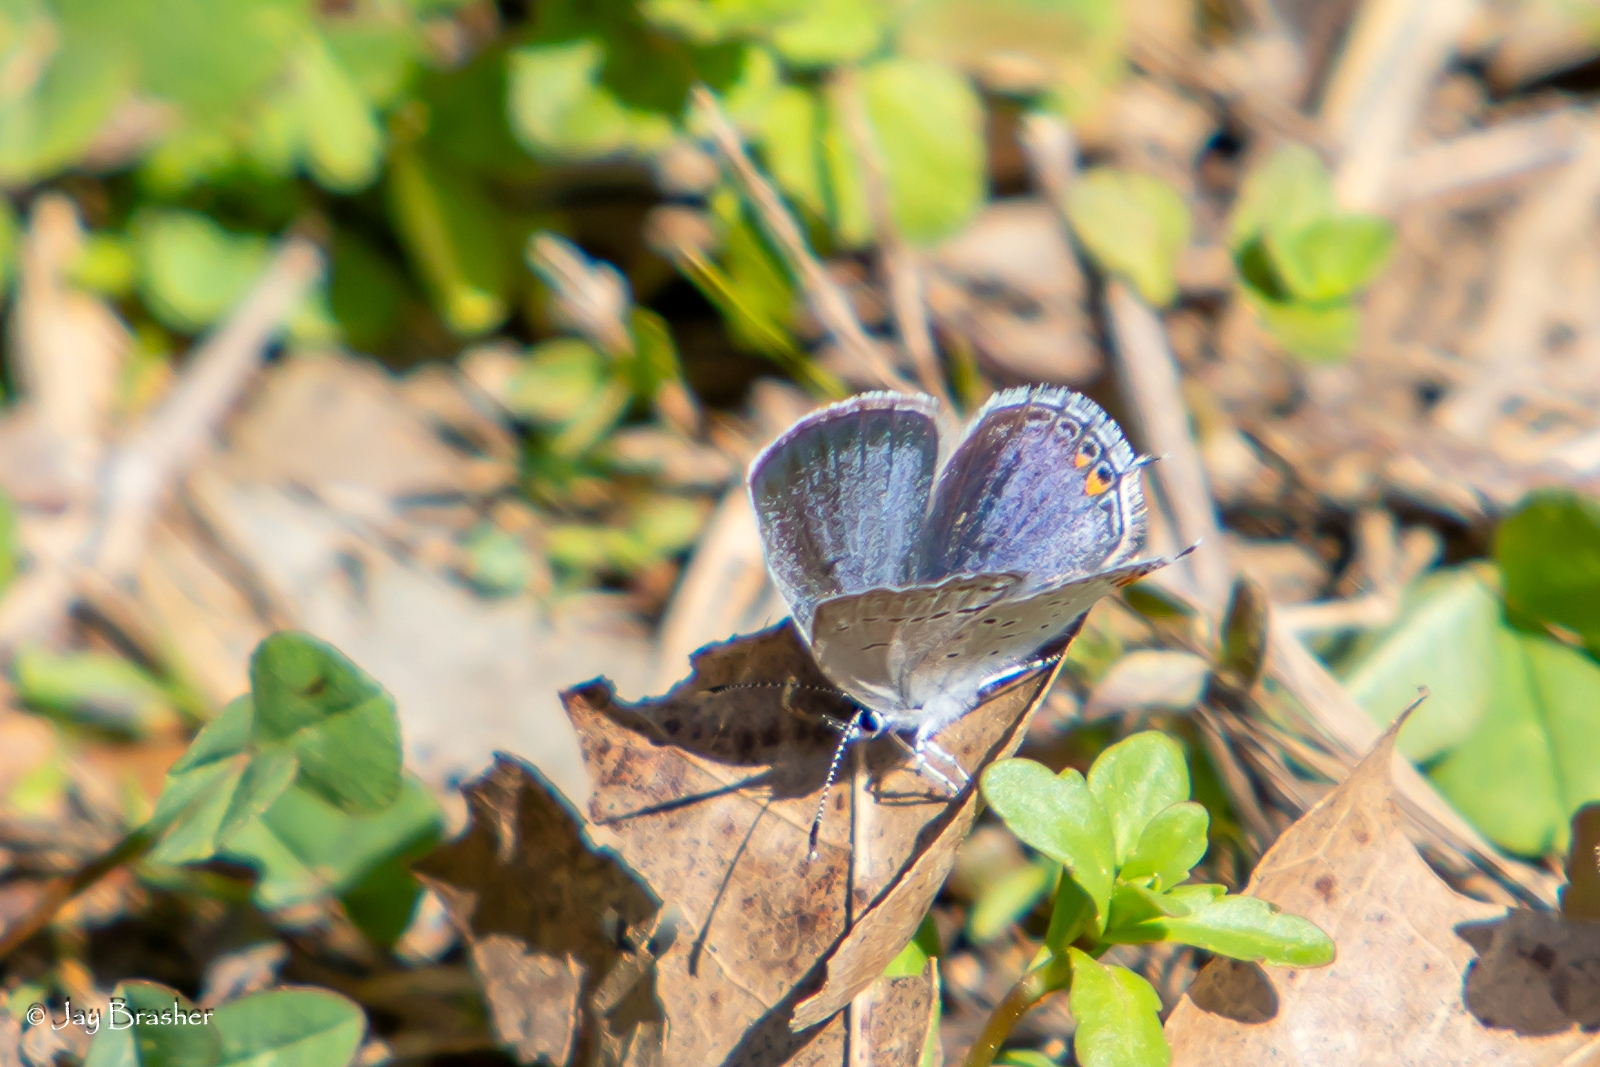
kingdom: Animalia
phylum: Arthropoda
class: Insecta
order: Lepidoptera
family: Lycaenidae
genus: Elkalyce
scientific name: Elkalyce comyntas
